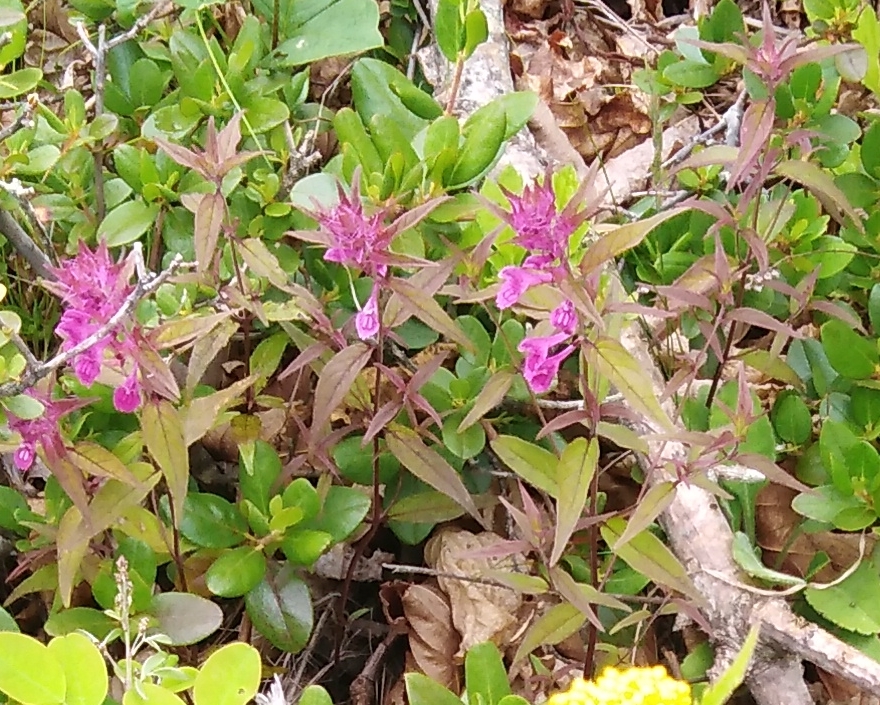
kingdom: Plantae
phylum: Tracheophyta
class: Magnoliopsida
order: Lamiales
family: Orobanchaceae
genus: Melampyrum
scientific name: Melampyrum setaceum
